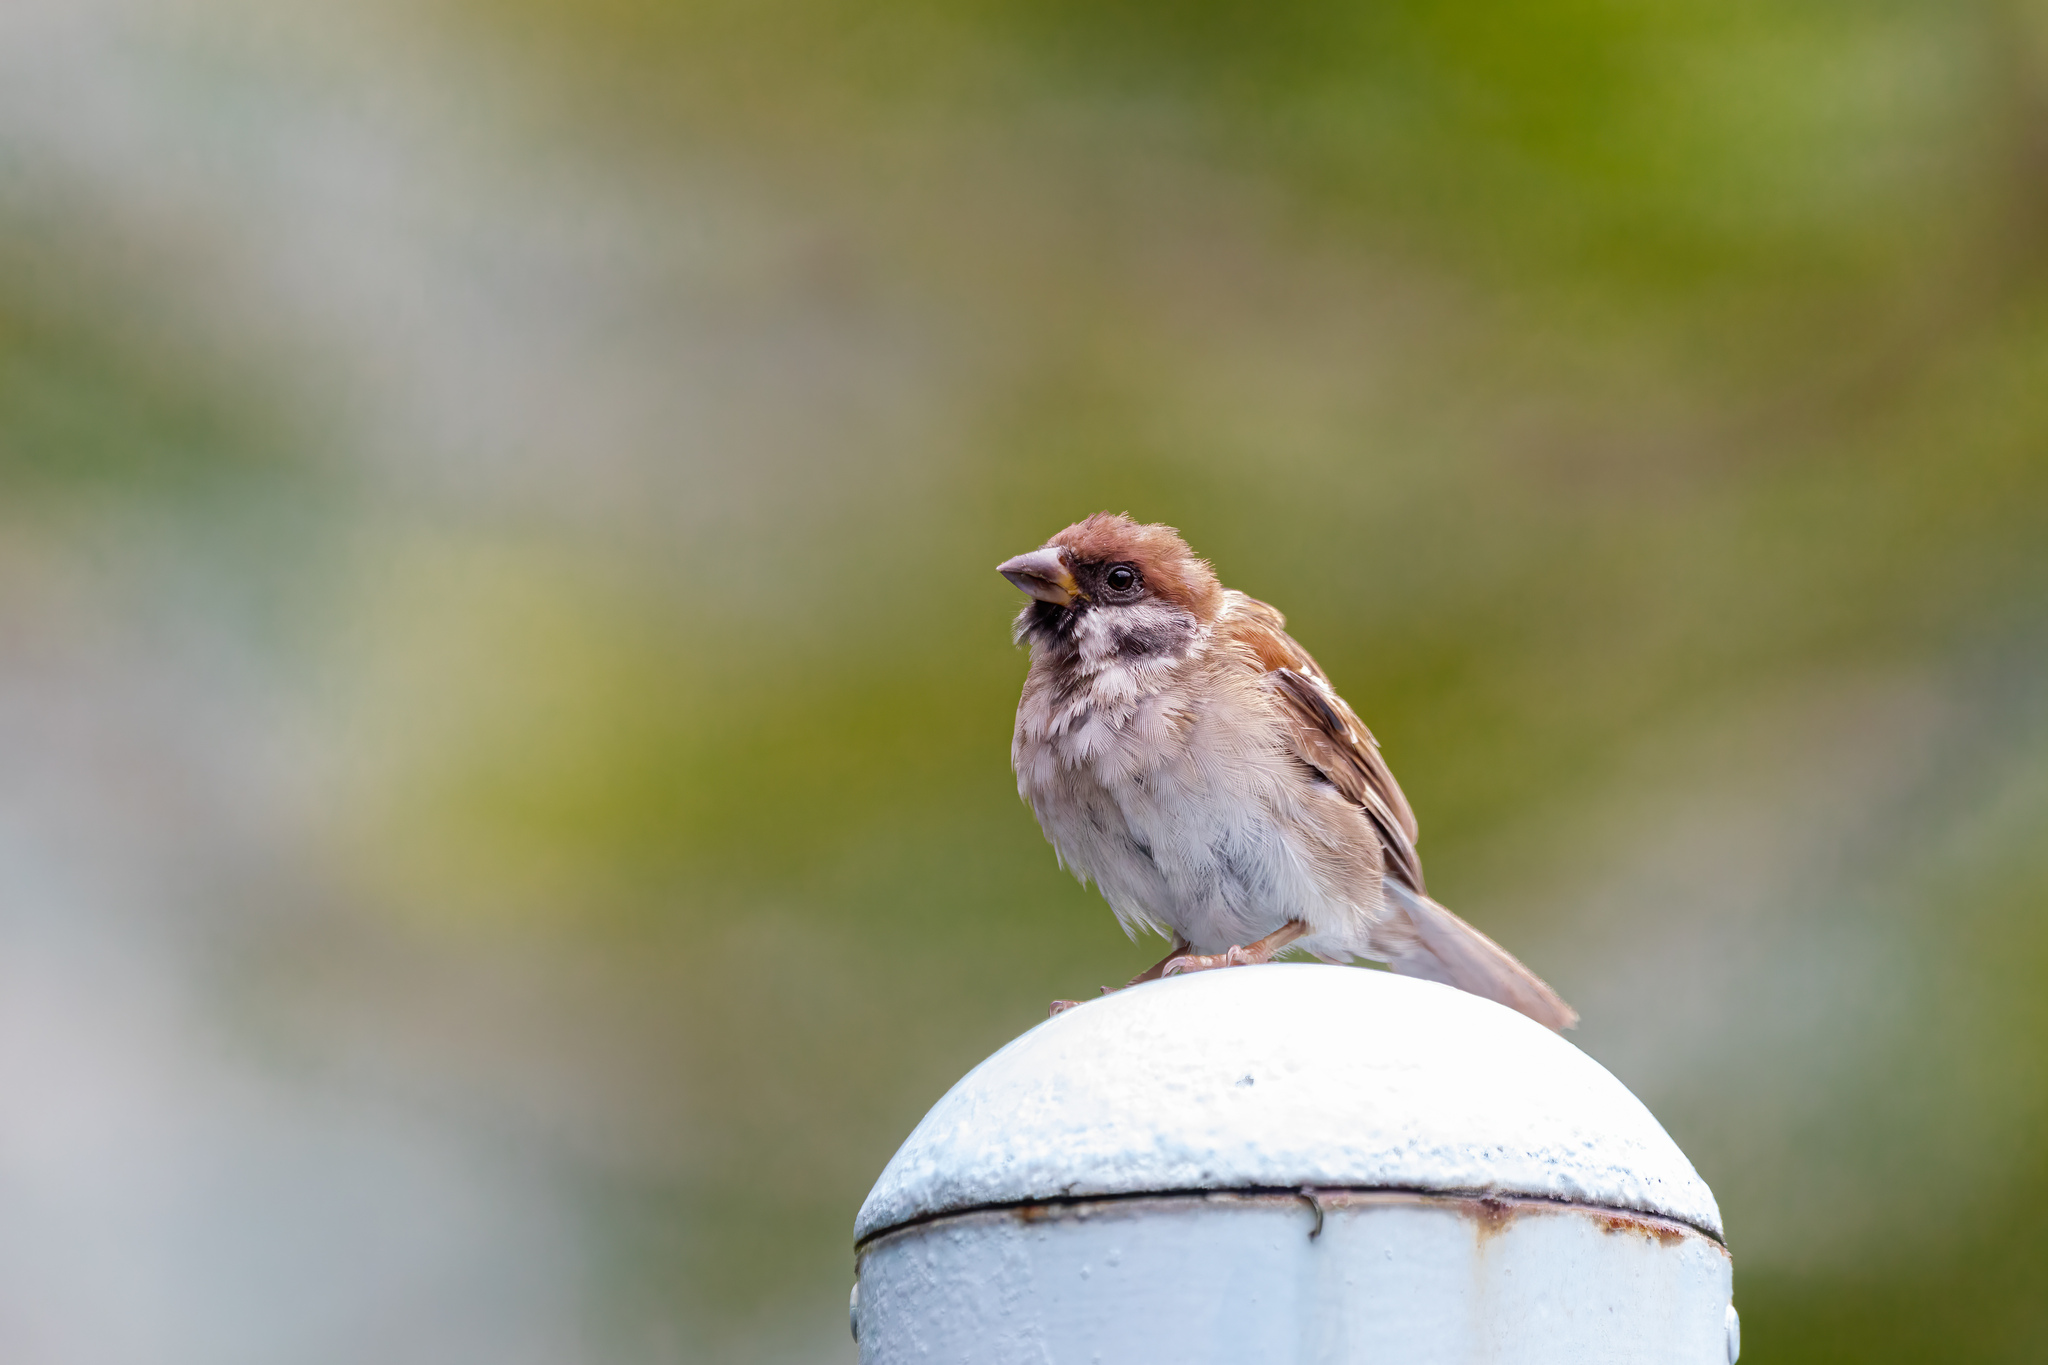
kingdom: Animalia
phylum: Chordata
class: Aves
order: Passeriformes
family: Passeridae
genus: Passer
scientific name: Passer montanus
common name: Eurasian tree sparrow
